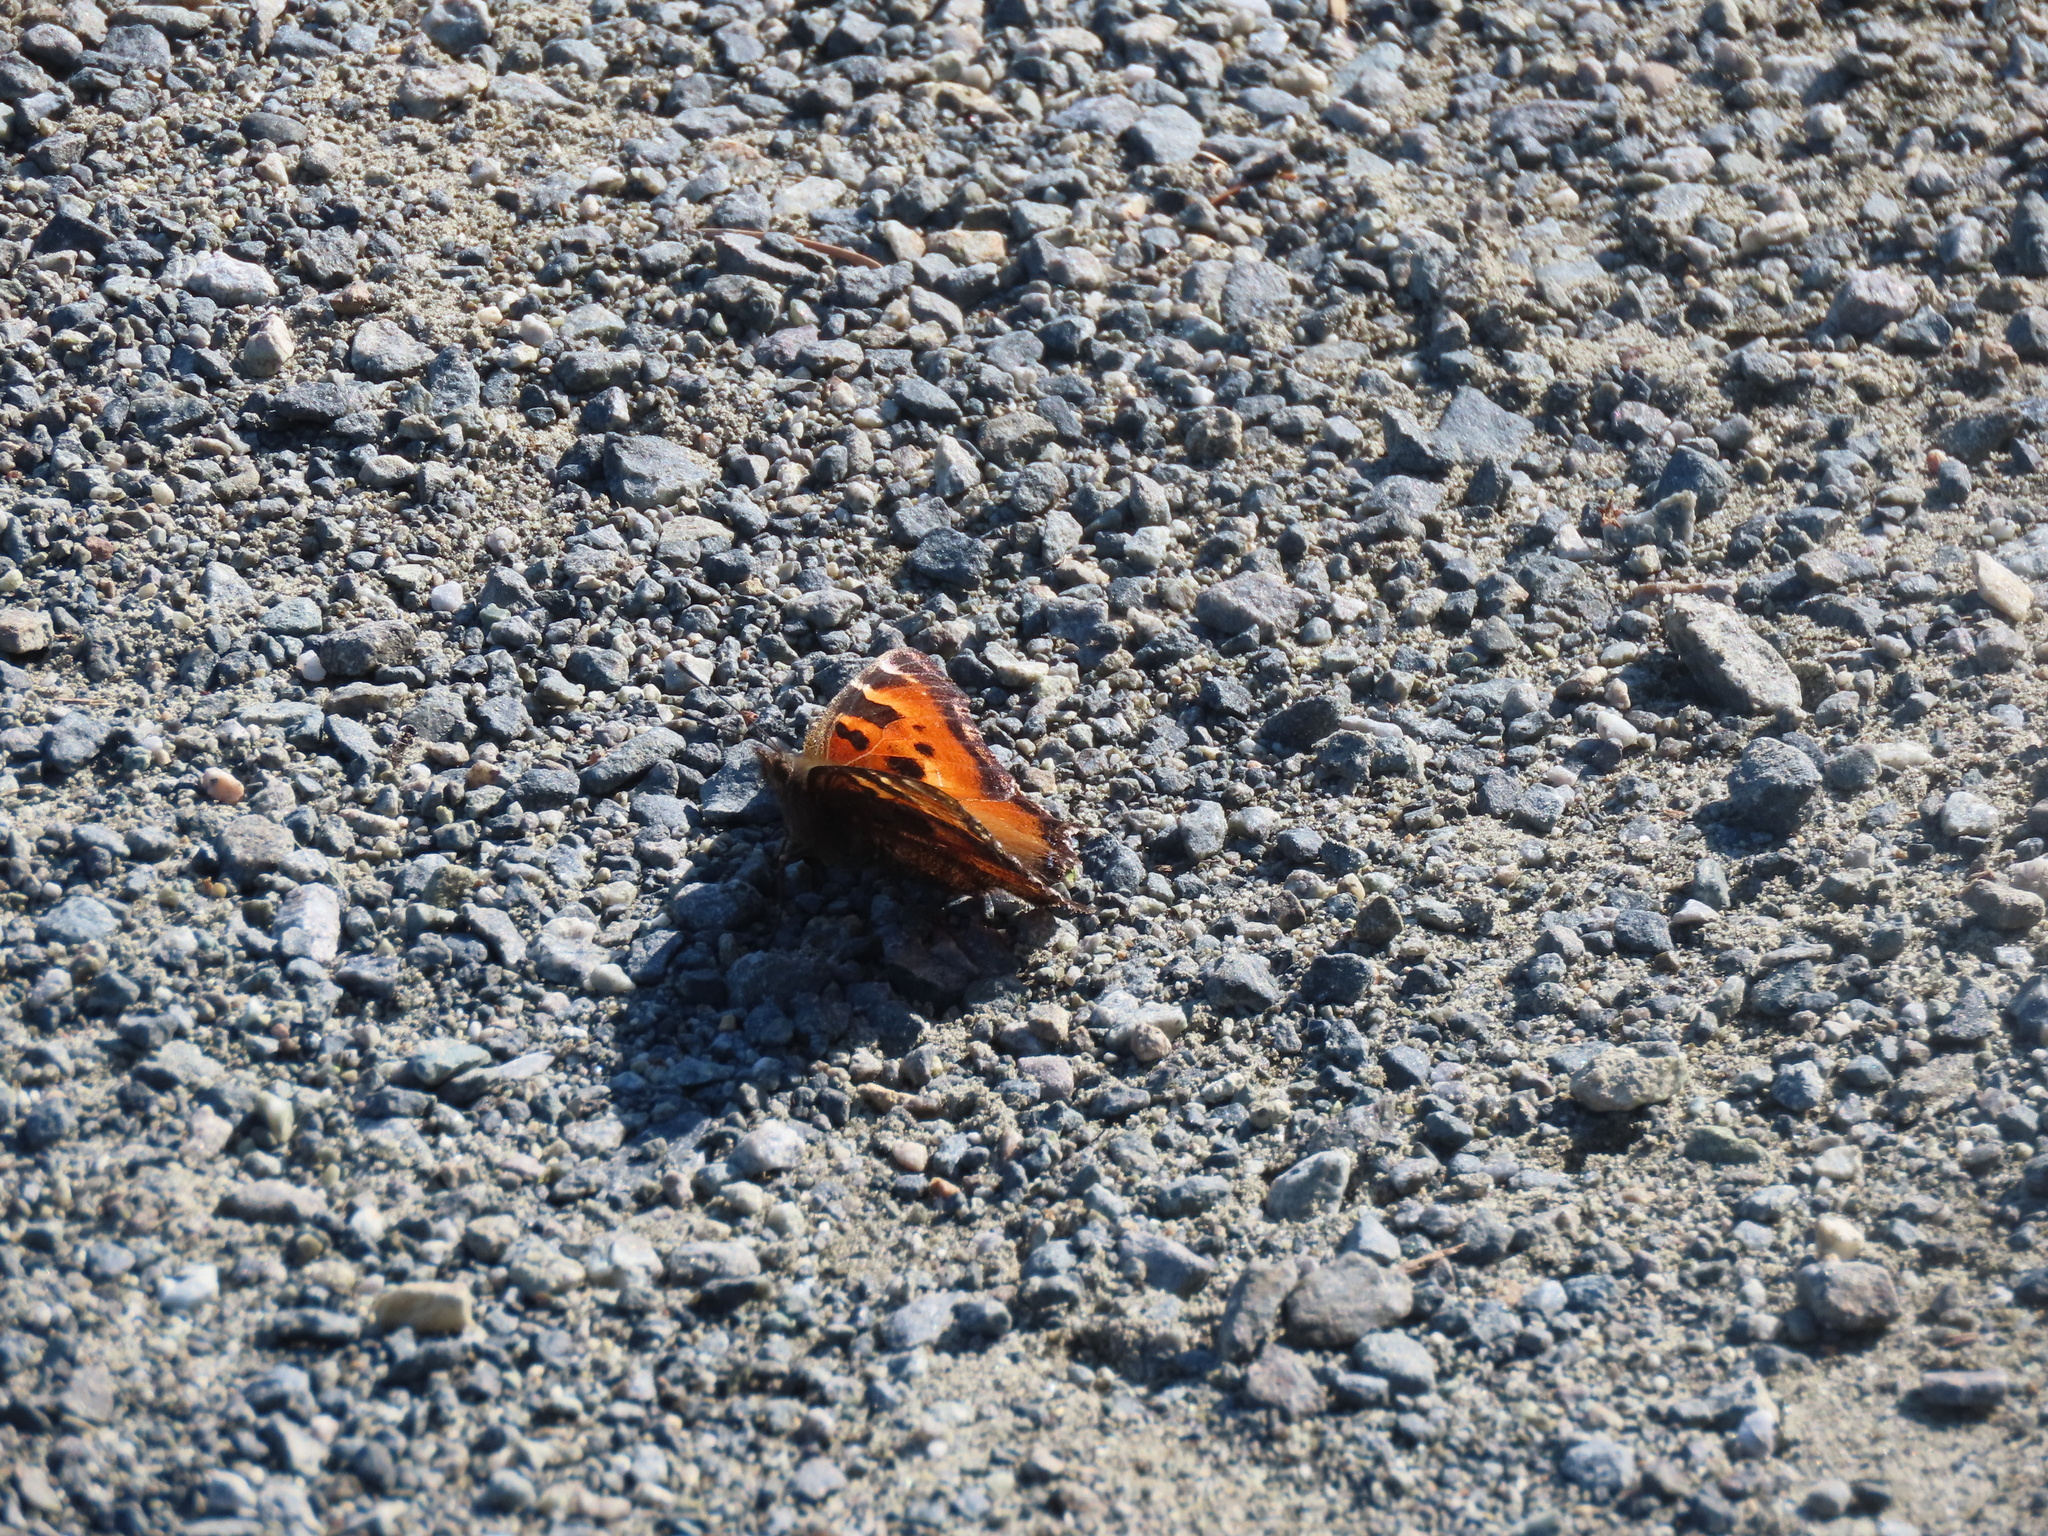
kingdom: Animalia
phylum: Arthropoda
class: Insecta
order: Lepidoptera
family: Nymphalidae
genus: Nymphalis
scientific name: Nymphalis californica
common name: California tortoiseshell
